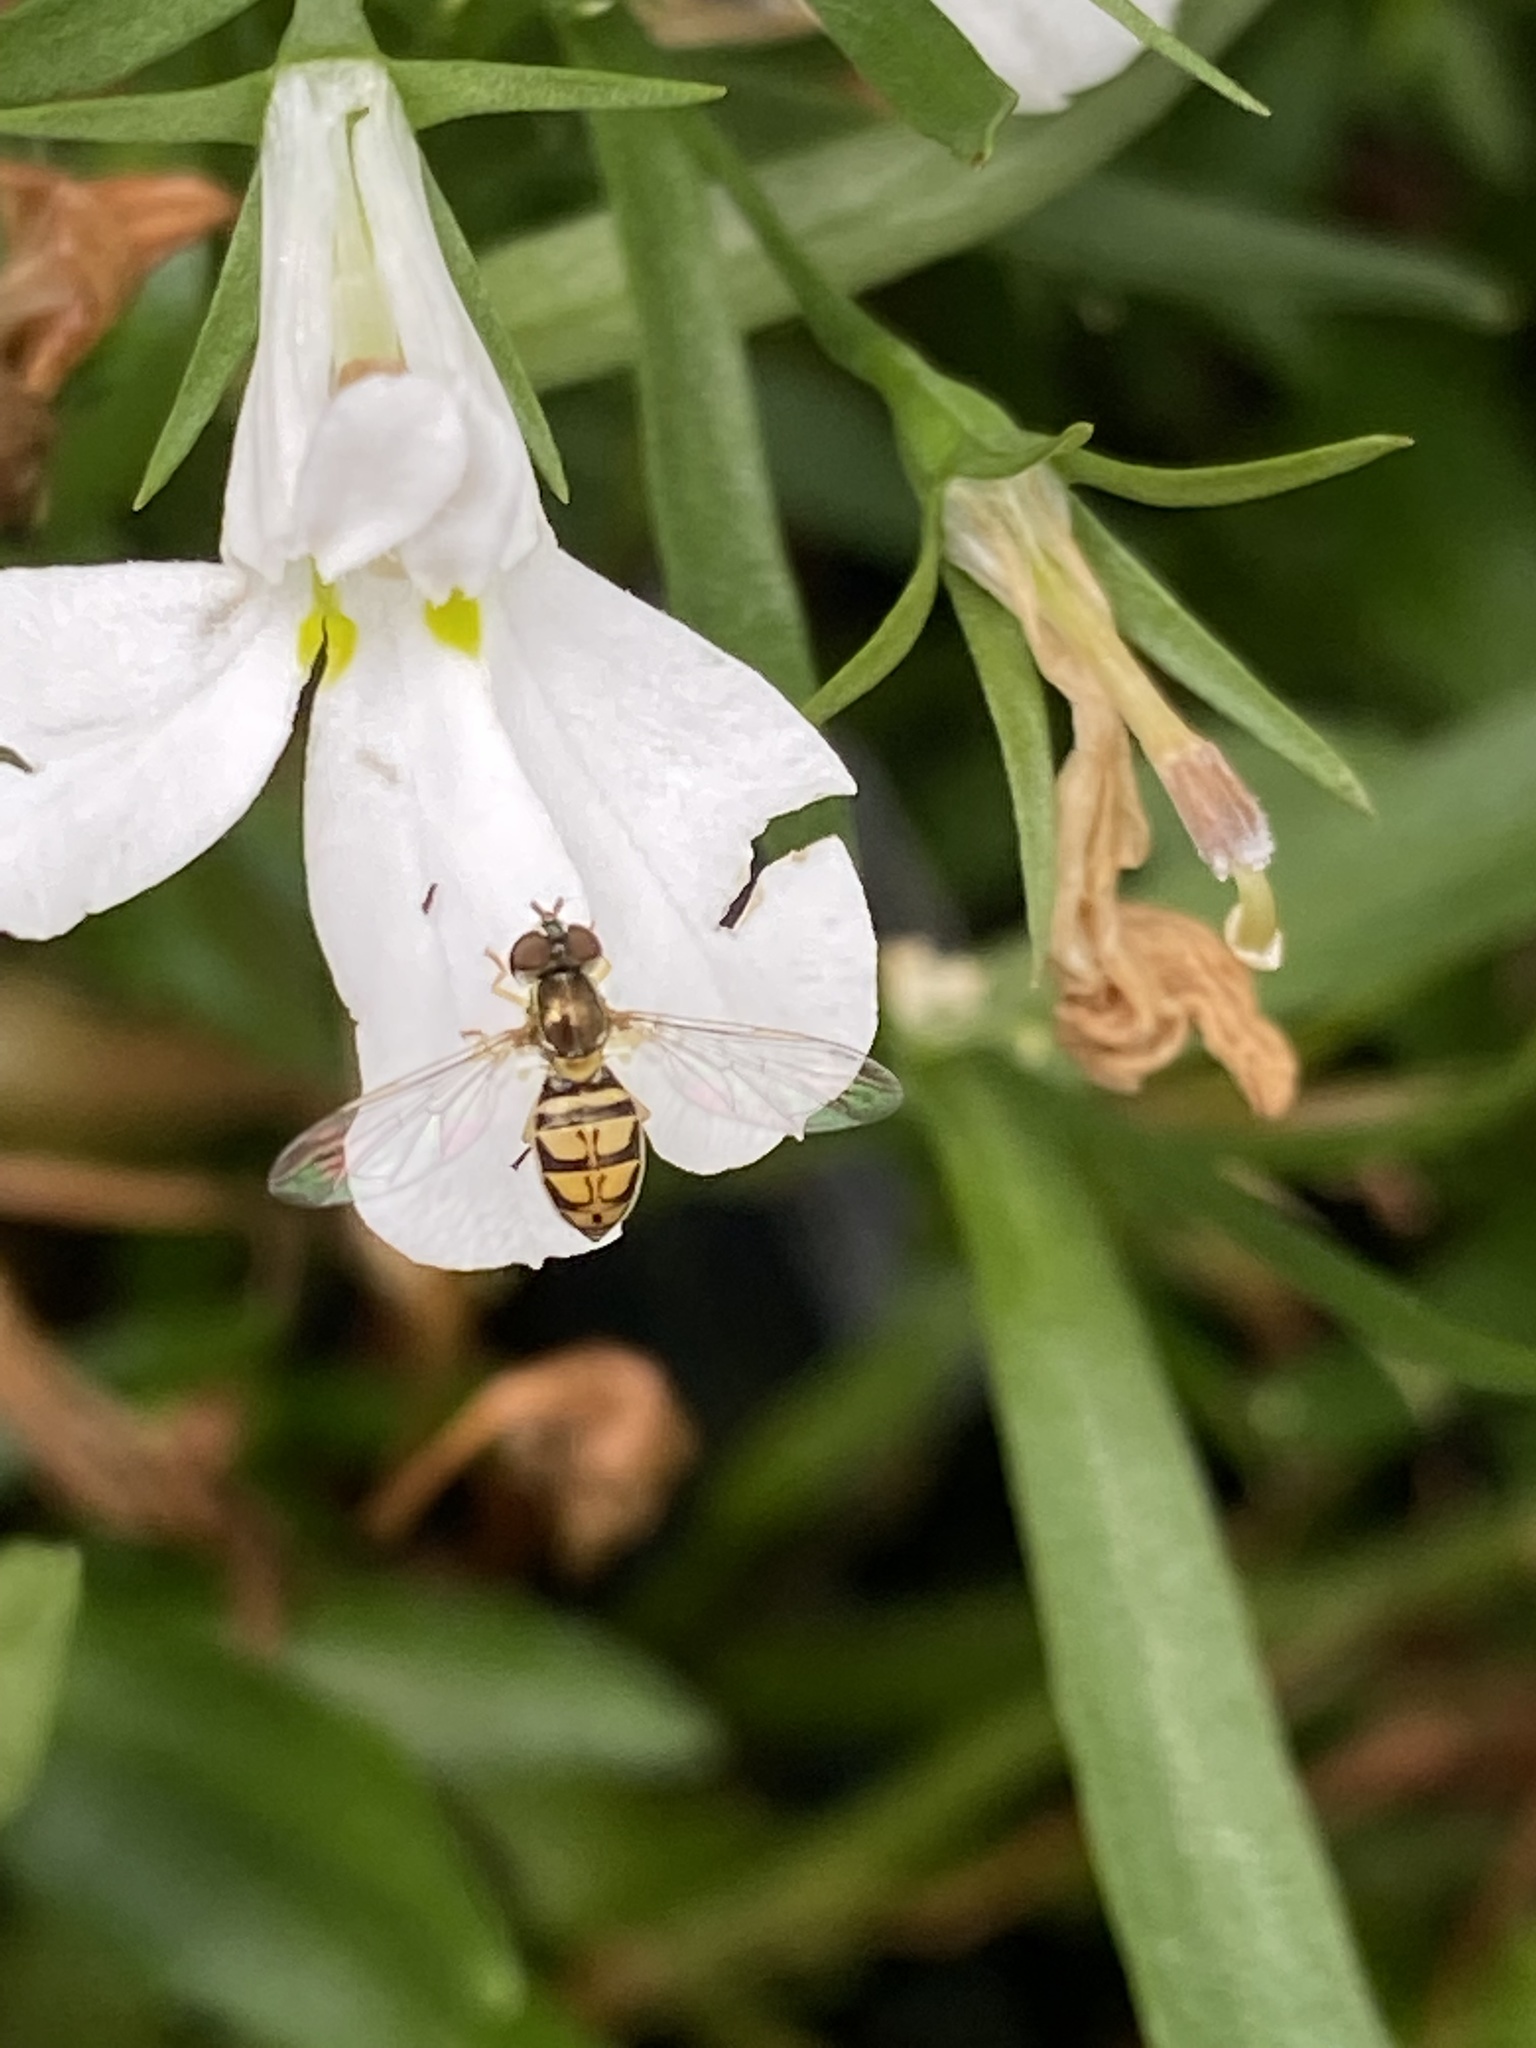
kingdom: Animalia
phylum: Arthropoda
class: Insecta
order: Diptera
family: Syrphidae
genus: Toxomerus
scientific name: Toxomerus marginatus
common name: Syrphid fly
